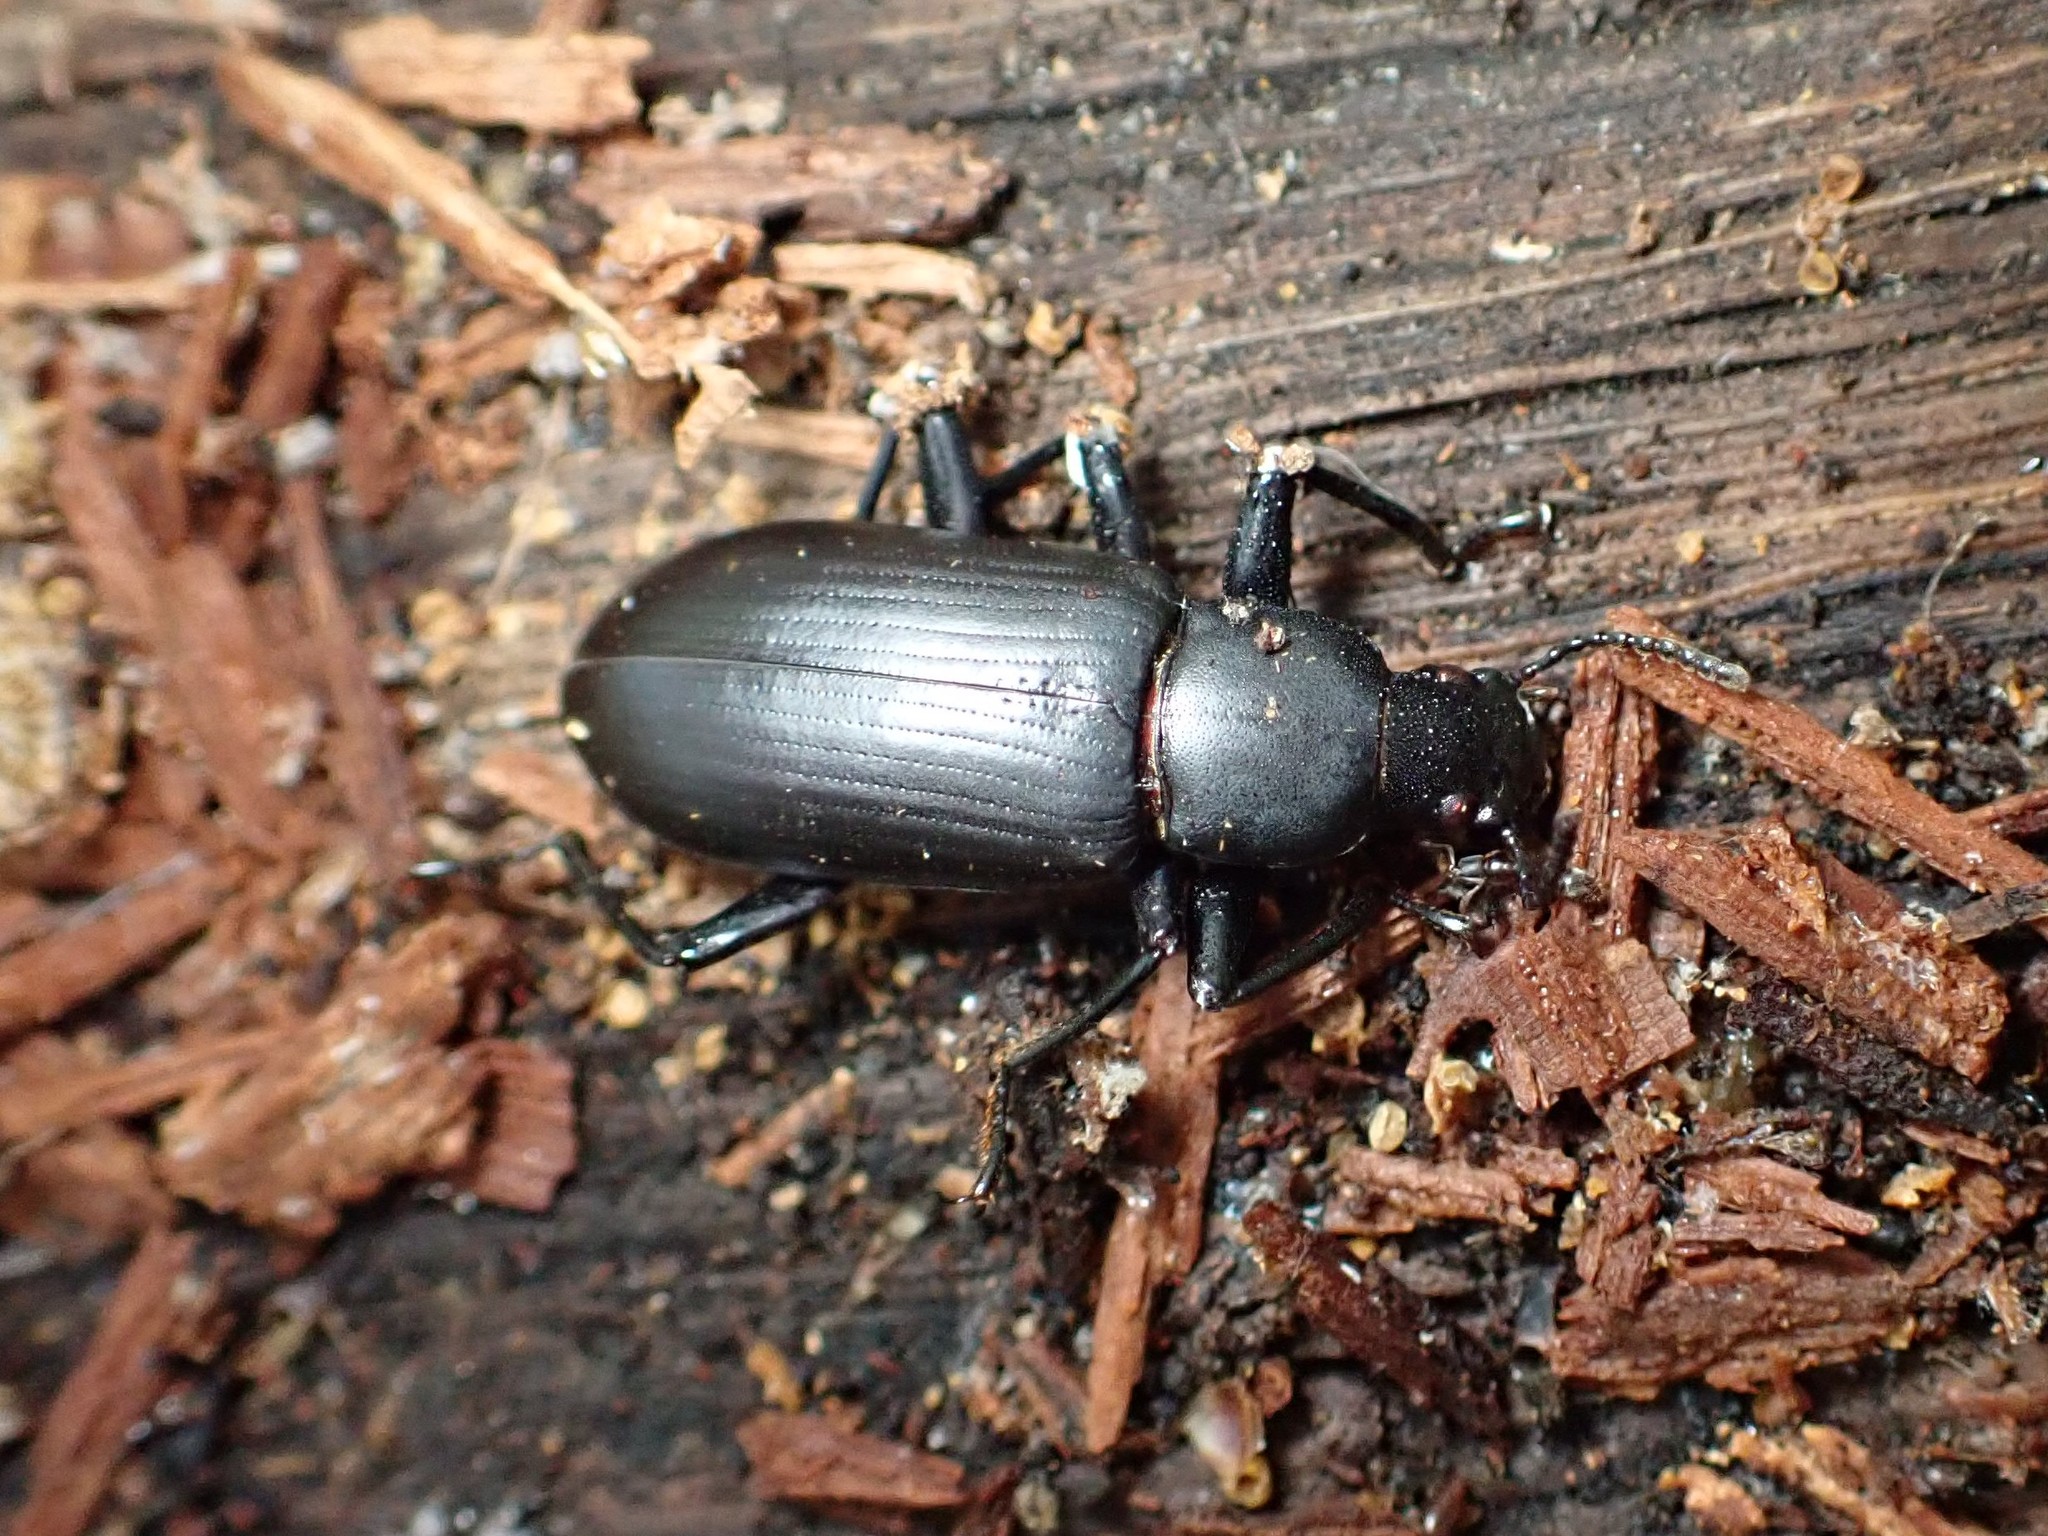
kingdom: Animalia
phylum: Arthropoda
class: Insecta
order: Coleoptera
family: Tenebrionidae
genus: Alobates
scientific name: Alobates pensylvanicus
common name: False mealworm beetle
